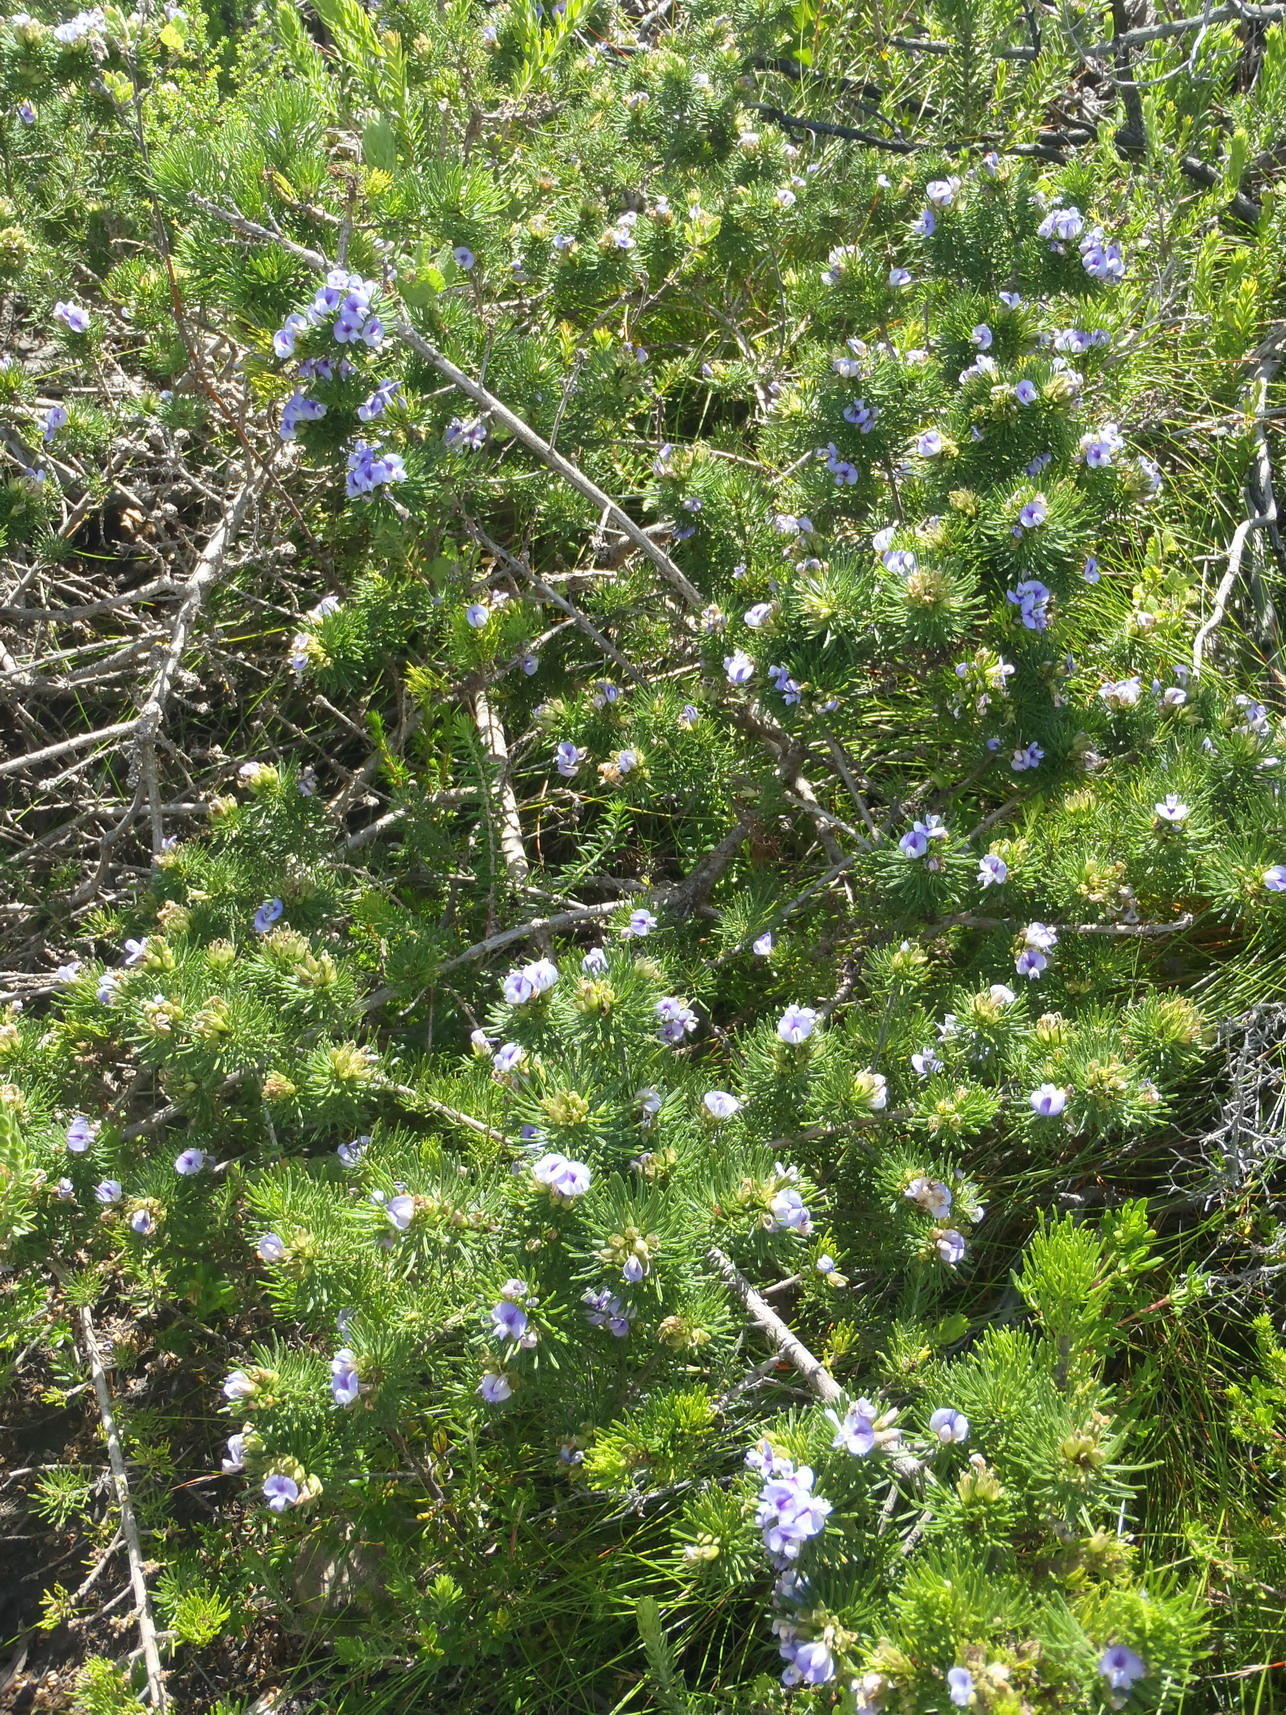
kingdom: Plantae
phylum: Tracheophyta
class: Magnoliopsida
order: Fabales
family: Fabaceae
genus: Psoralea
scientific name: Psoralea vanberkelae
